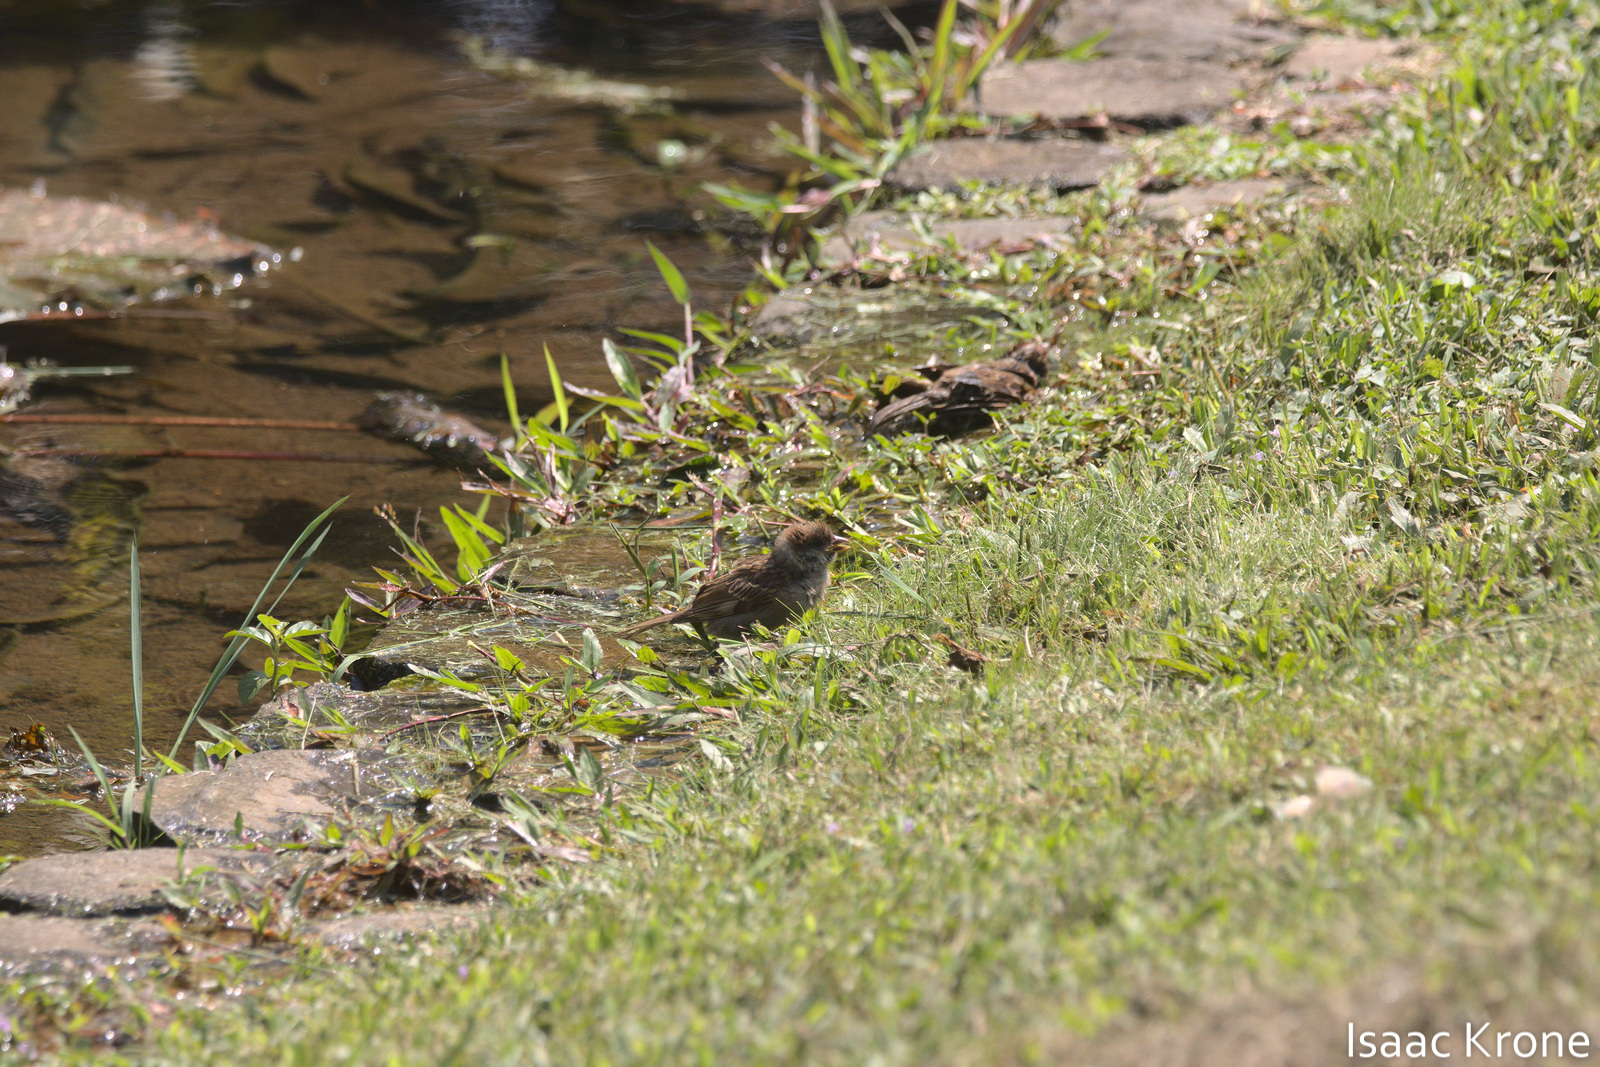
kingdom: Animalia
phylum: Chordata
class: Aves
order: Passeriformes
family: Passeridae
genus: Passer
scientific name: Passer montanus
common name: Eurasian tree sparrow
